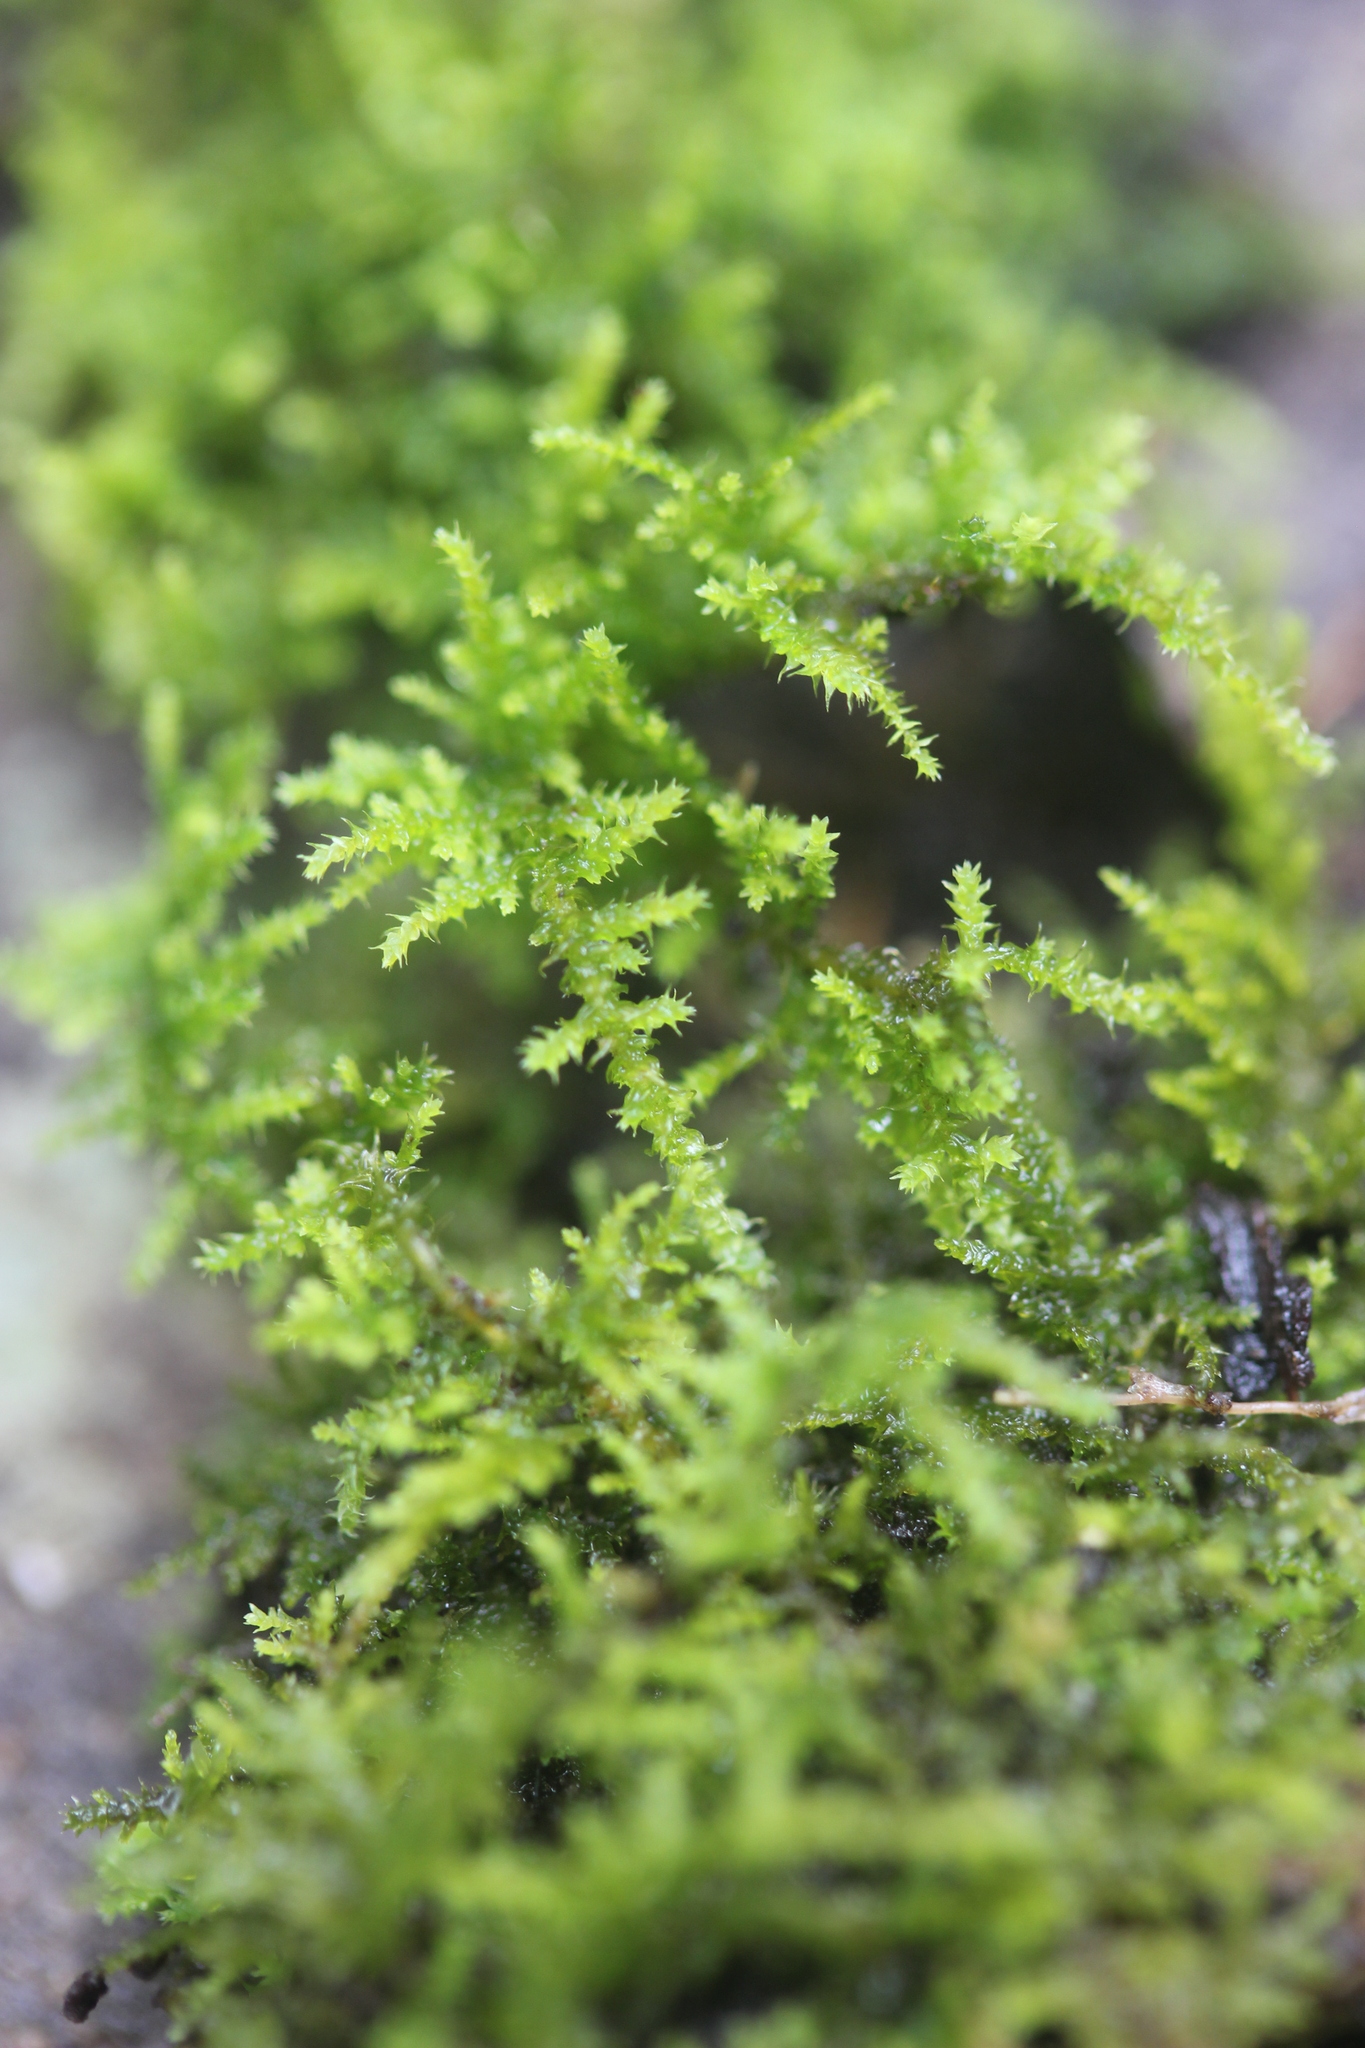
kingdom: Plantae
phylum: Bryophyta
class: Bryopsida
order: Hypnales
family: Thuidiaceae
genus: Thuidiopsis
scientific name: Thuidiopsis furfurosa
